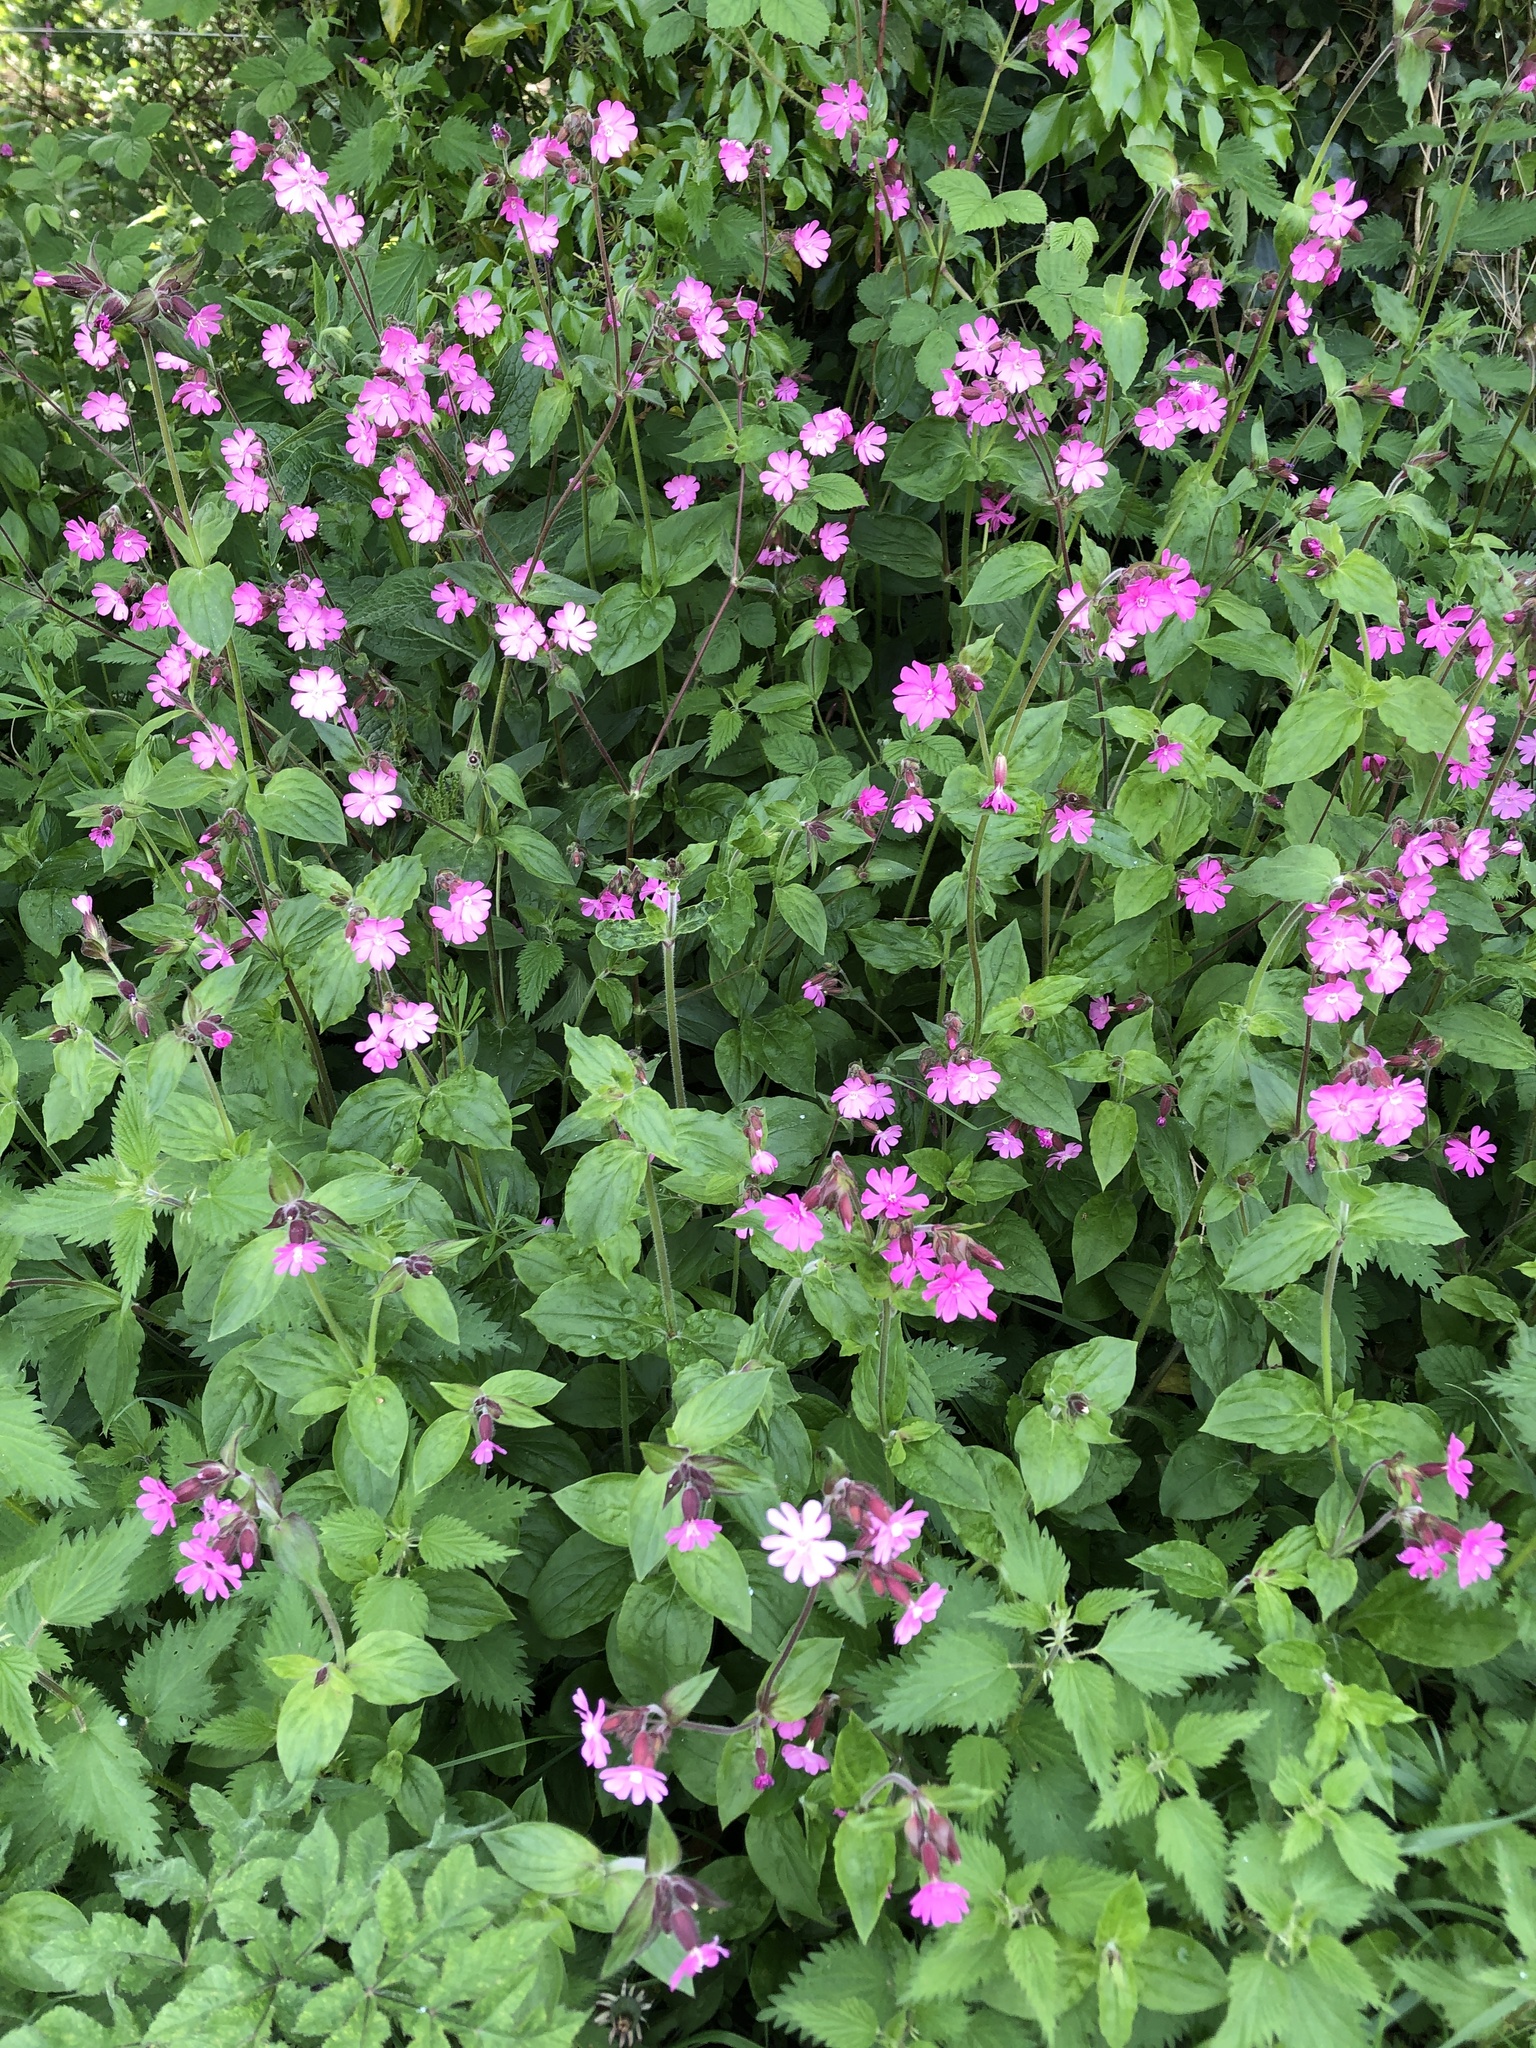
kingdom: Plantae
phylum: Tracheophyta
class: Magnoliopsida
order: Caryophyllales
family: Caryophyllaceae
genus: Silene
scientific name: Silene dioica
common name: Red campion
